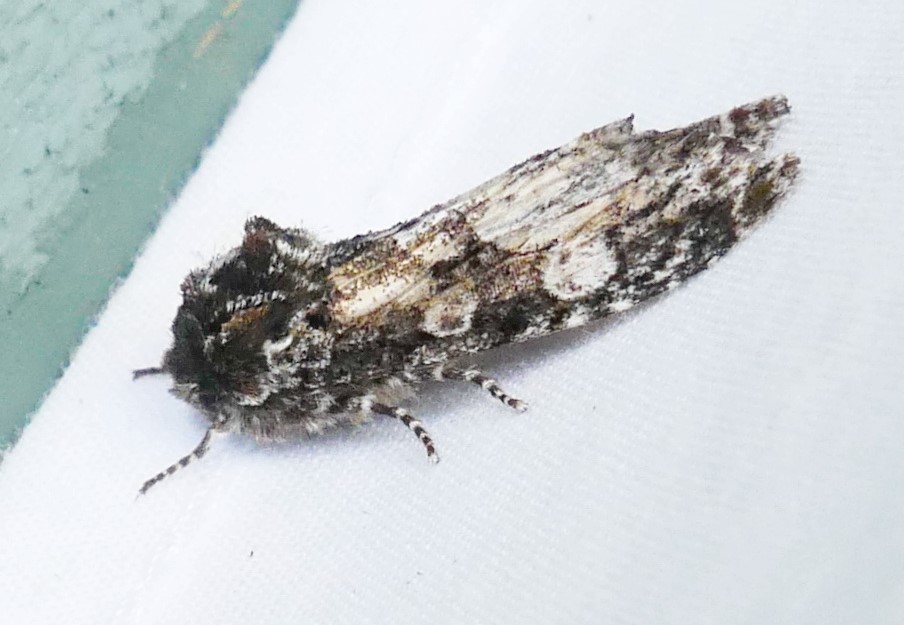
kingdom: Animalia
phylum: Arthropoda
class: Insecta
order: Lepidoptera
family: Noctuidae
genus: Psaphida
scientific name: Psaphida grotei
